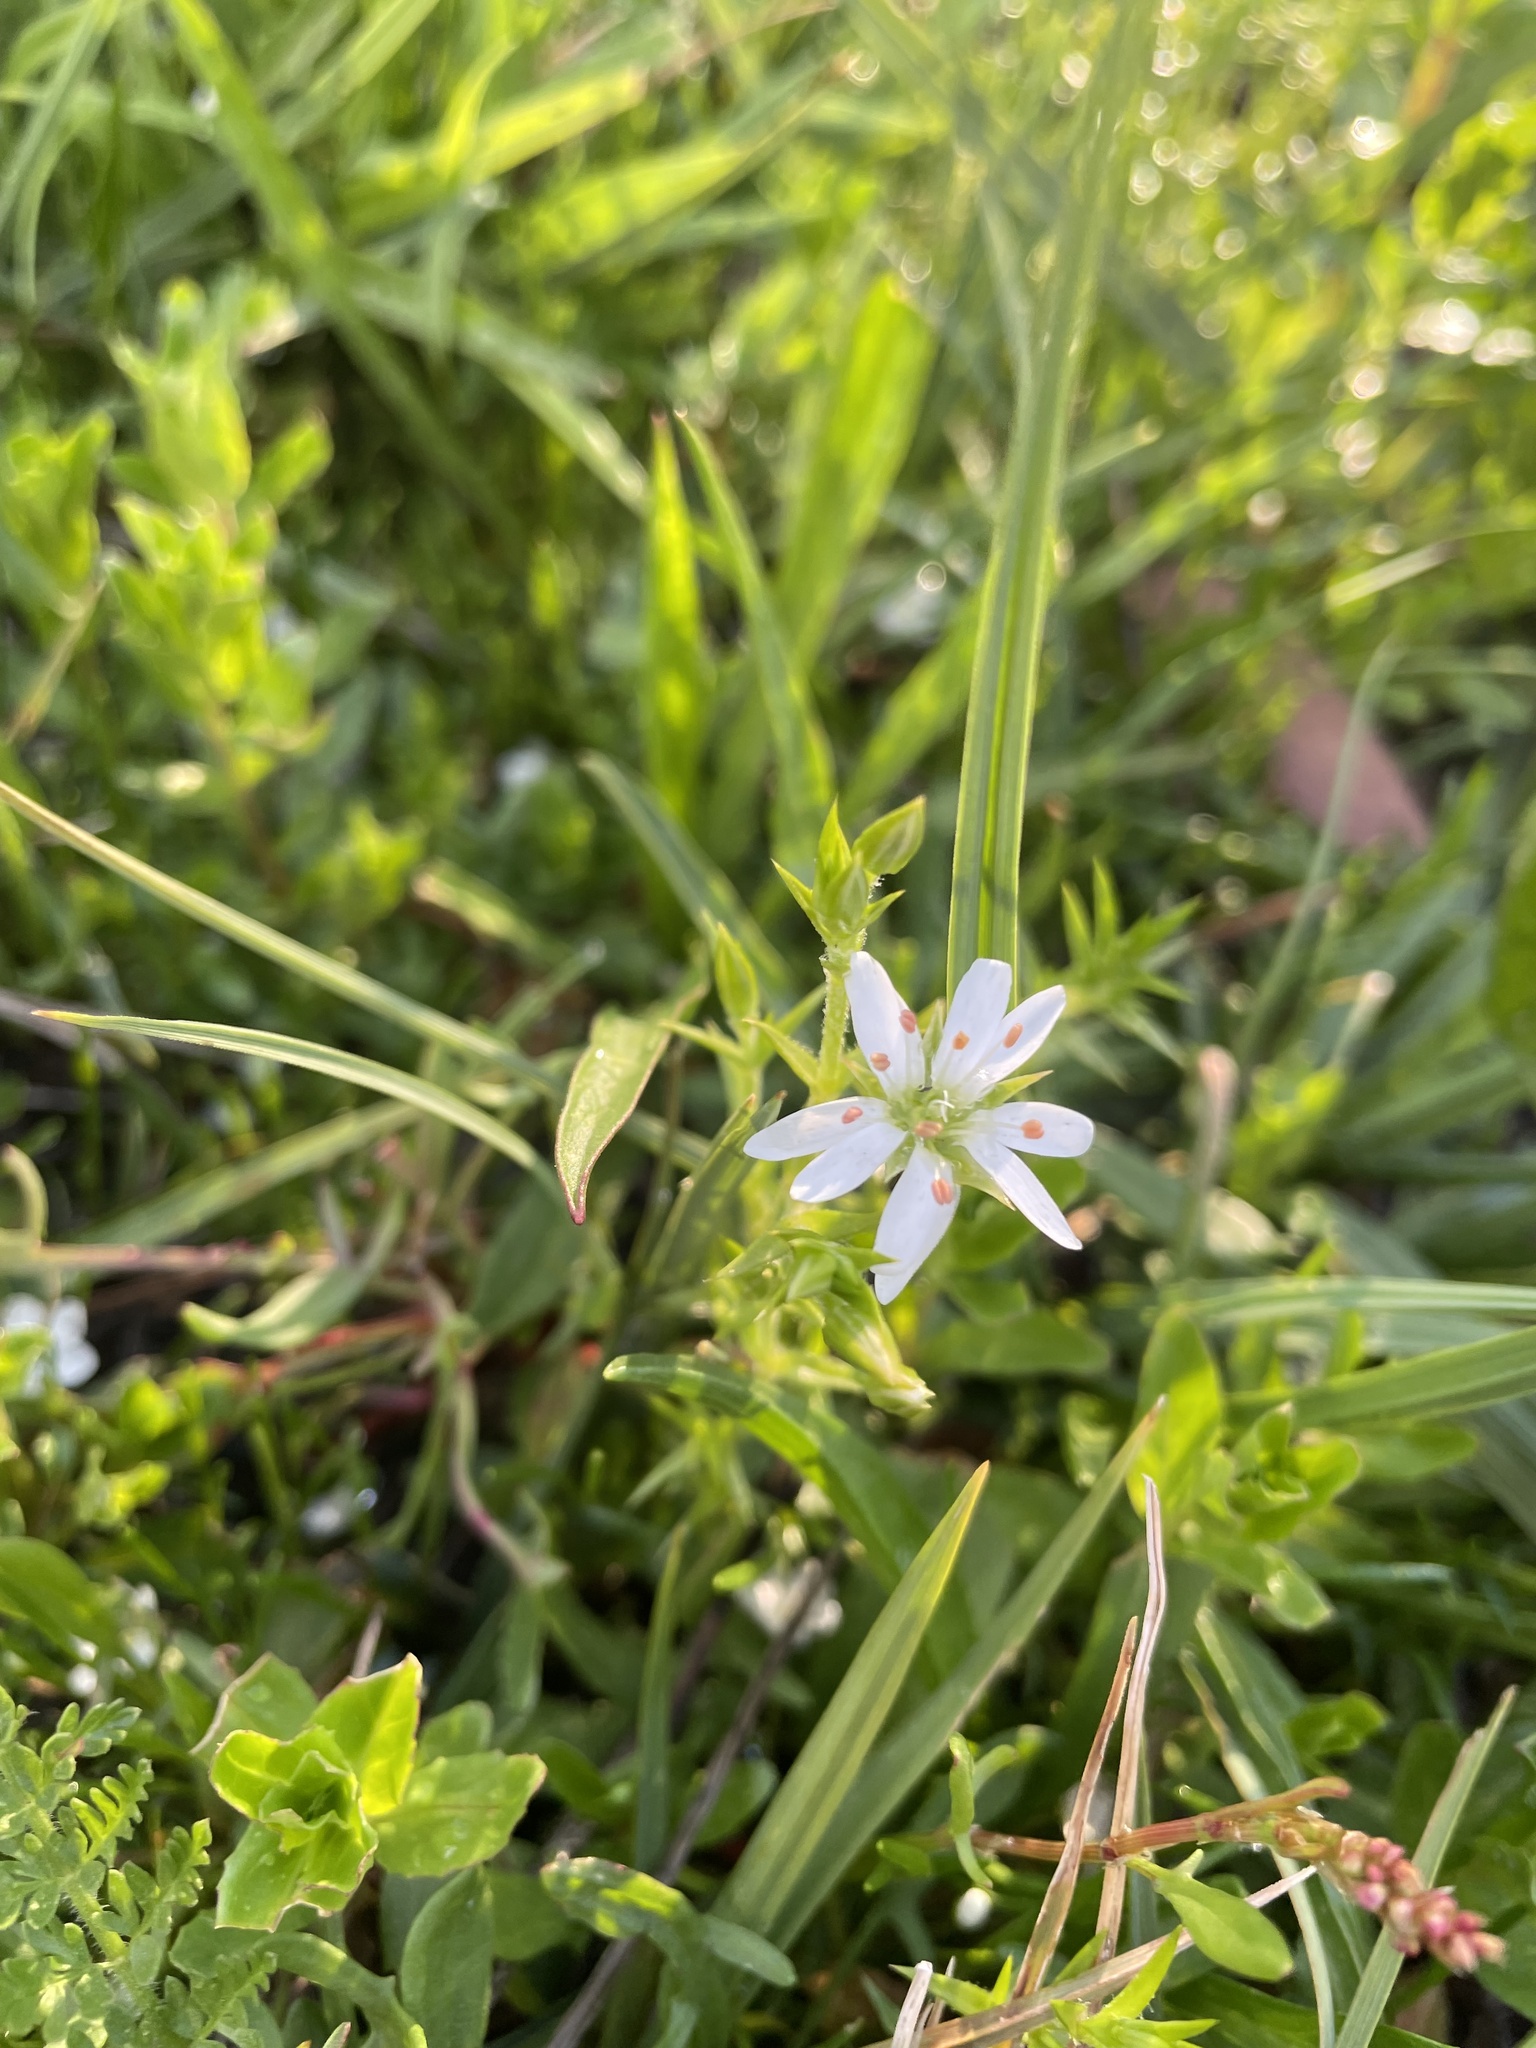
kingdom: Plantae
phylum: Tracheophyta
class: Magnoliopsida
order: Caryophyllales
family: Caryophyllaceae
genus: Stellaria
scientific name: Stellaria pungens
